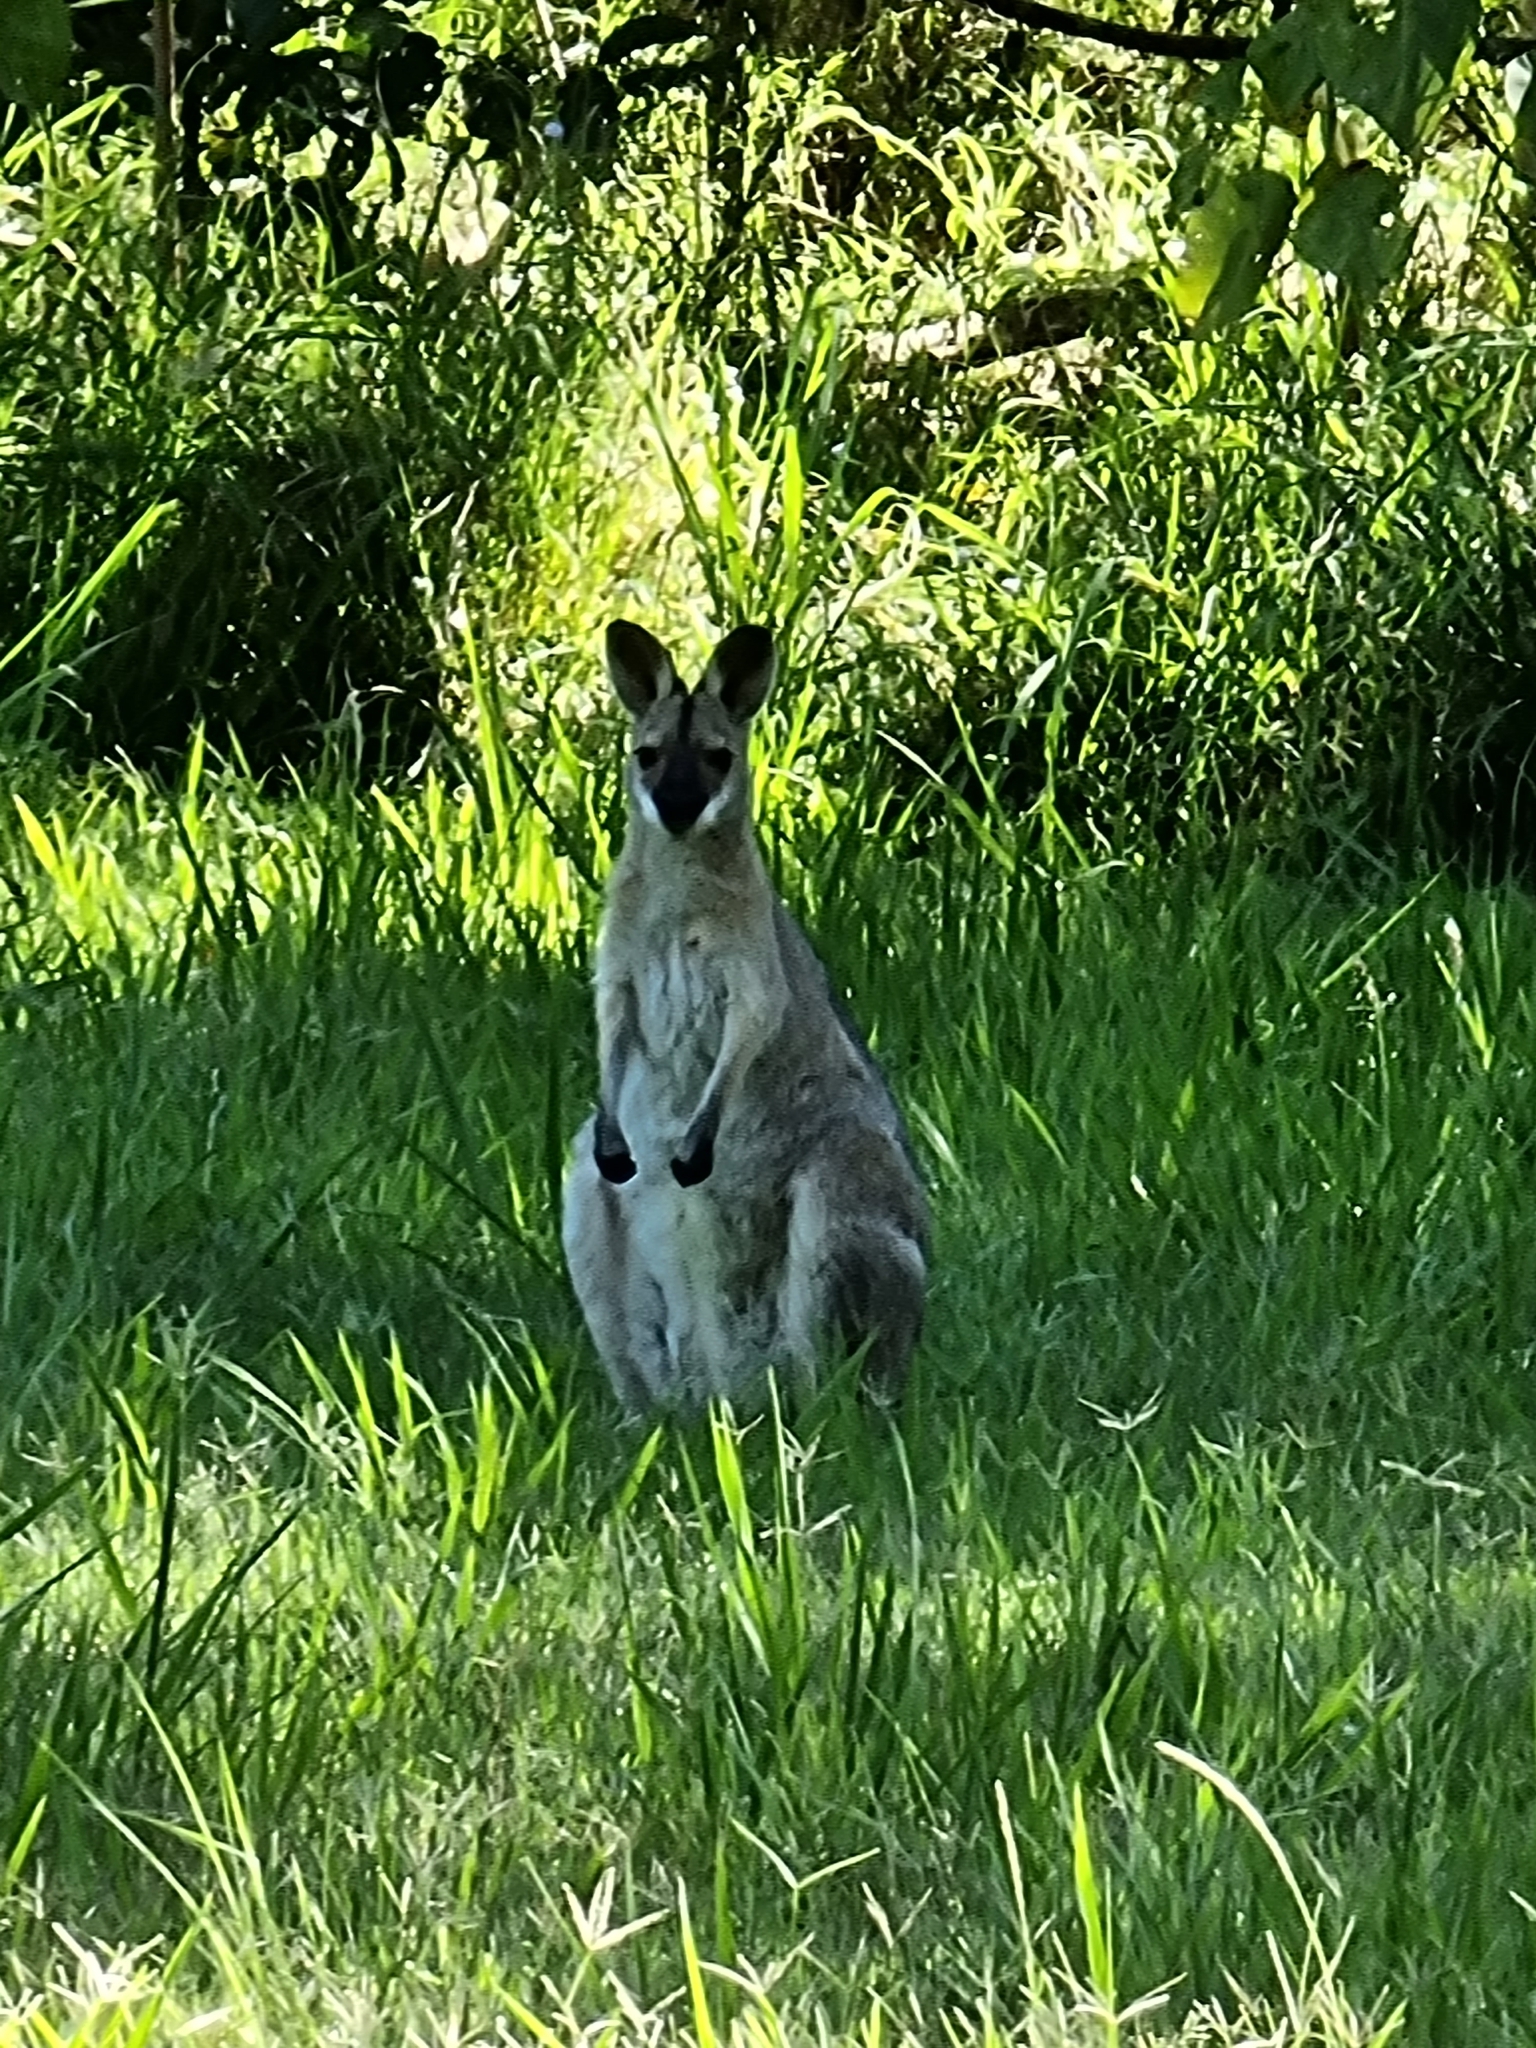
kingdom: Animalia
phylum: Chordata
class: Mammalia
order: Diprotodontia
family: Macropodidae
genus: Notamacropus
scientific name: Notamacropus rufogriseus
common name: Red-necked wallaby
